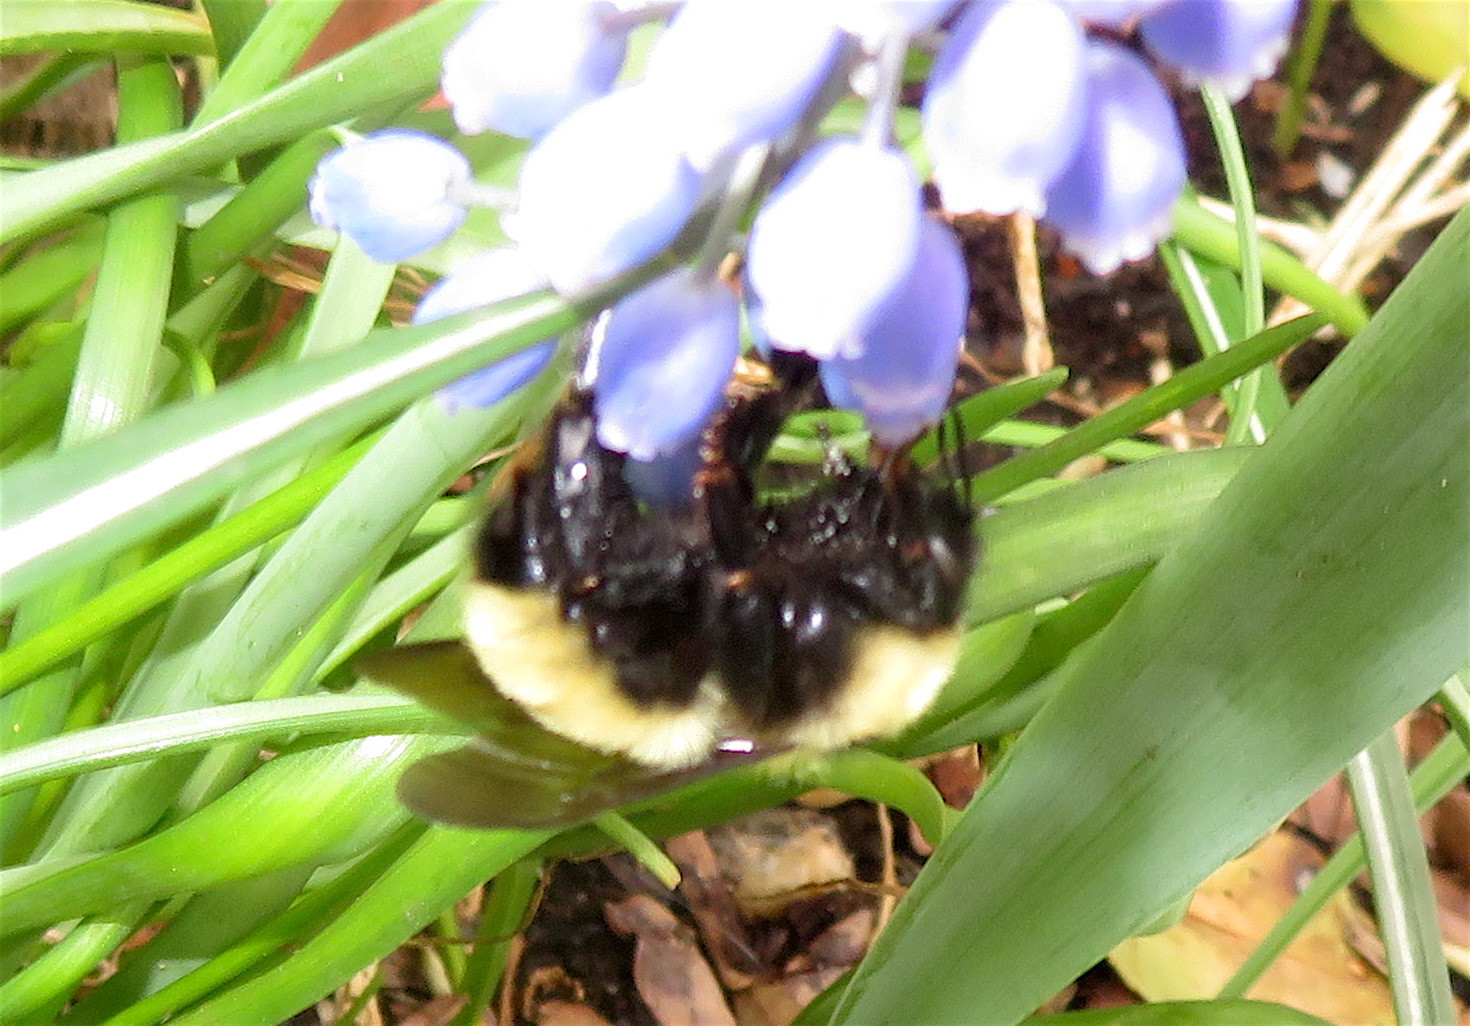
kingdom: Animalia
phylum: Arthropoda
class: Insecta
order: Hymenoptera
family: Apidae
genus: Bombus
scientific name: Bombus fervidus
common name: Yellow bumble bee
